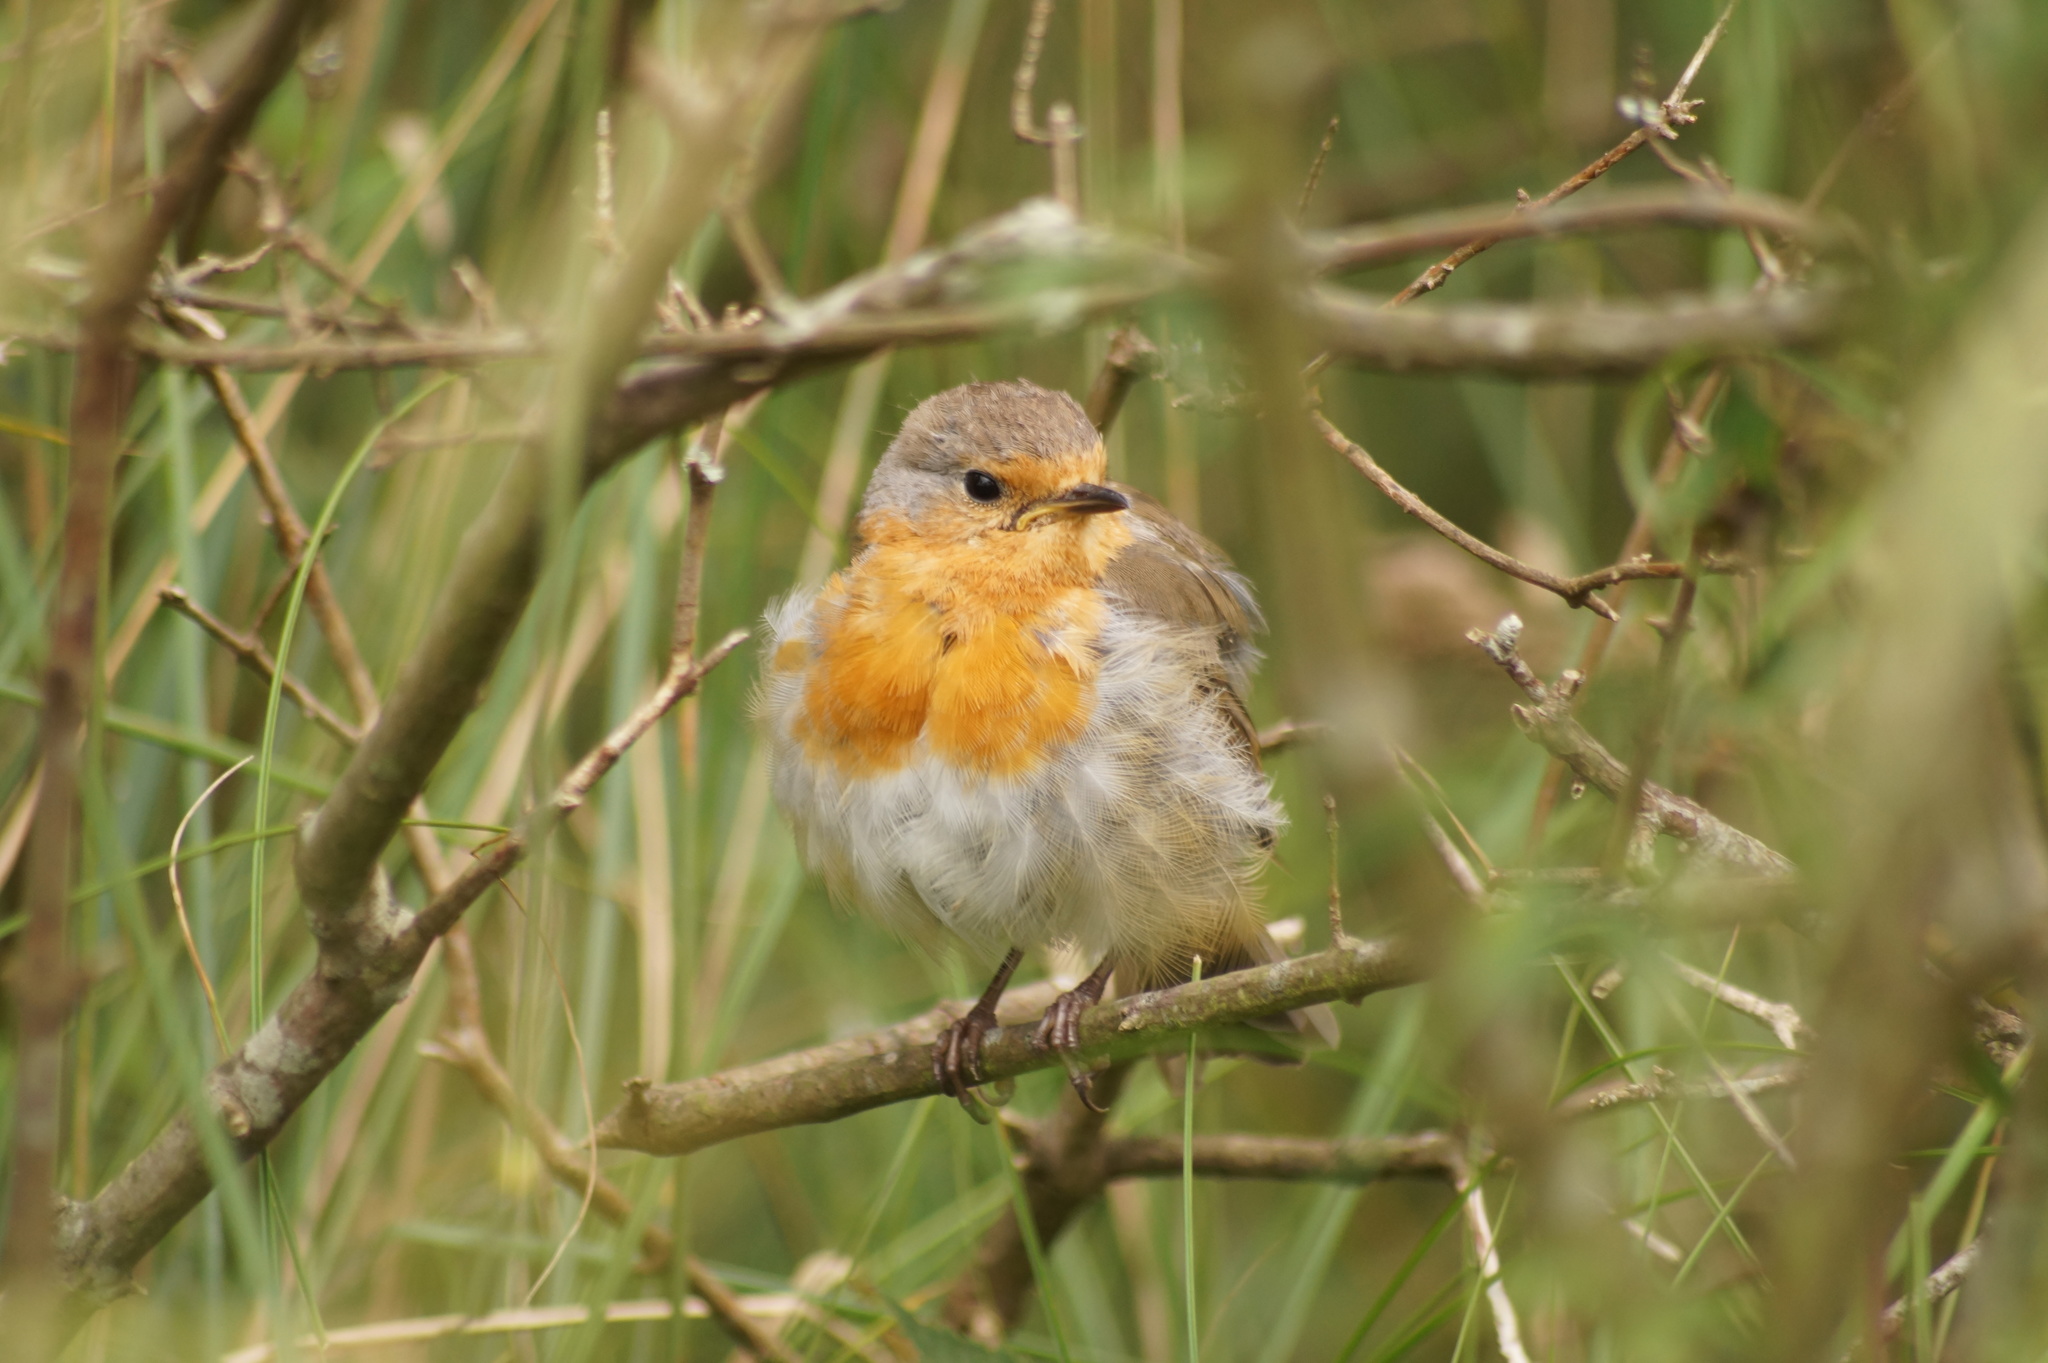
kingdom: Animalia
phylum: Chordata
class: Aves
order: Passeriformes
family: Muscicapidae
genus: Erithacus
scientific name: Erithacus rubecula
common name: European robin
